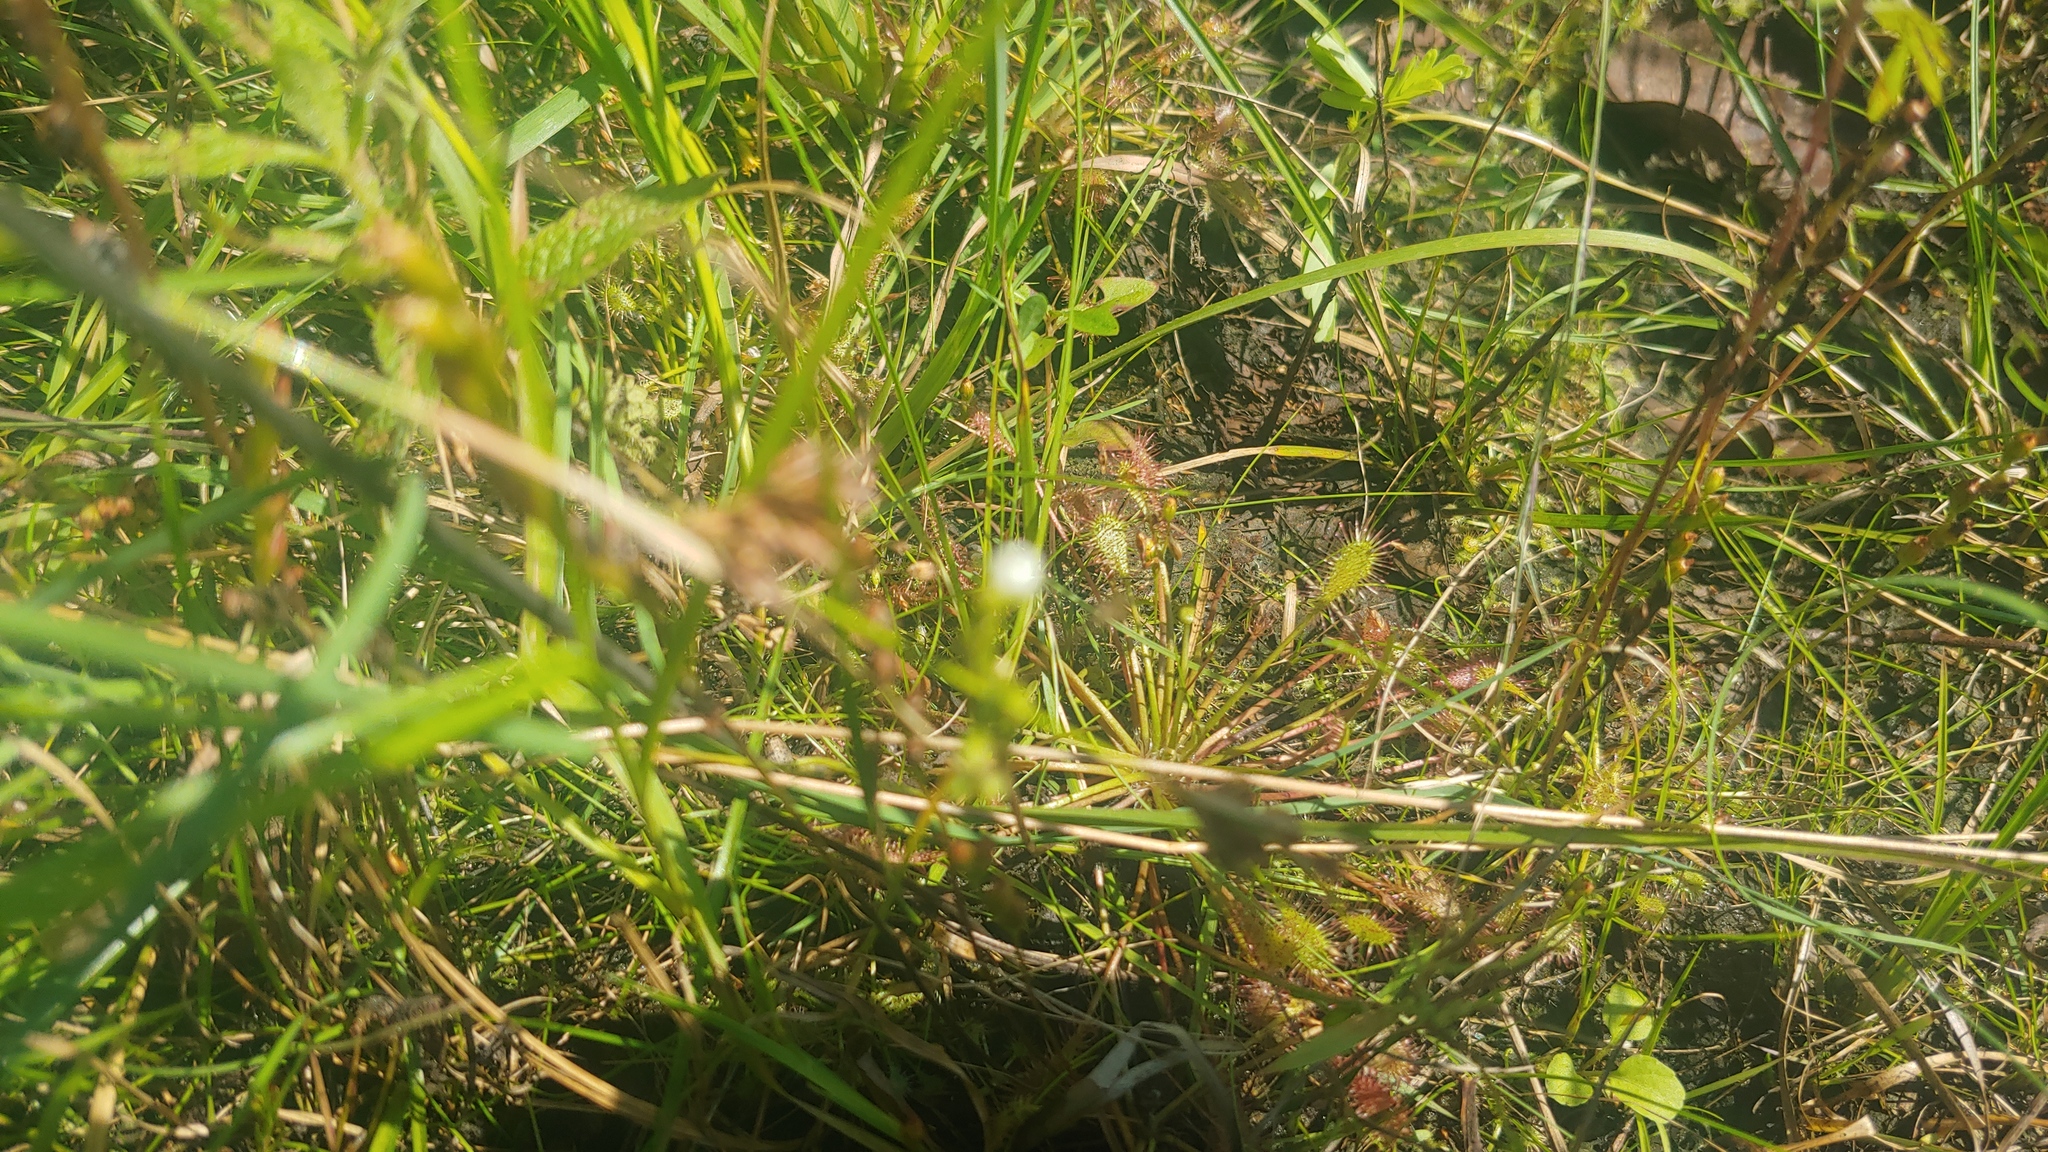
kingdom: Plantae
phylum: Tracheophyta
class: Magnoliopsida
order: Caryophyllales
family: Droseraceae
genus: Drosera
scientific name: Drosera intermedia
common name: Oblong-leaved sundew
